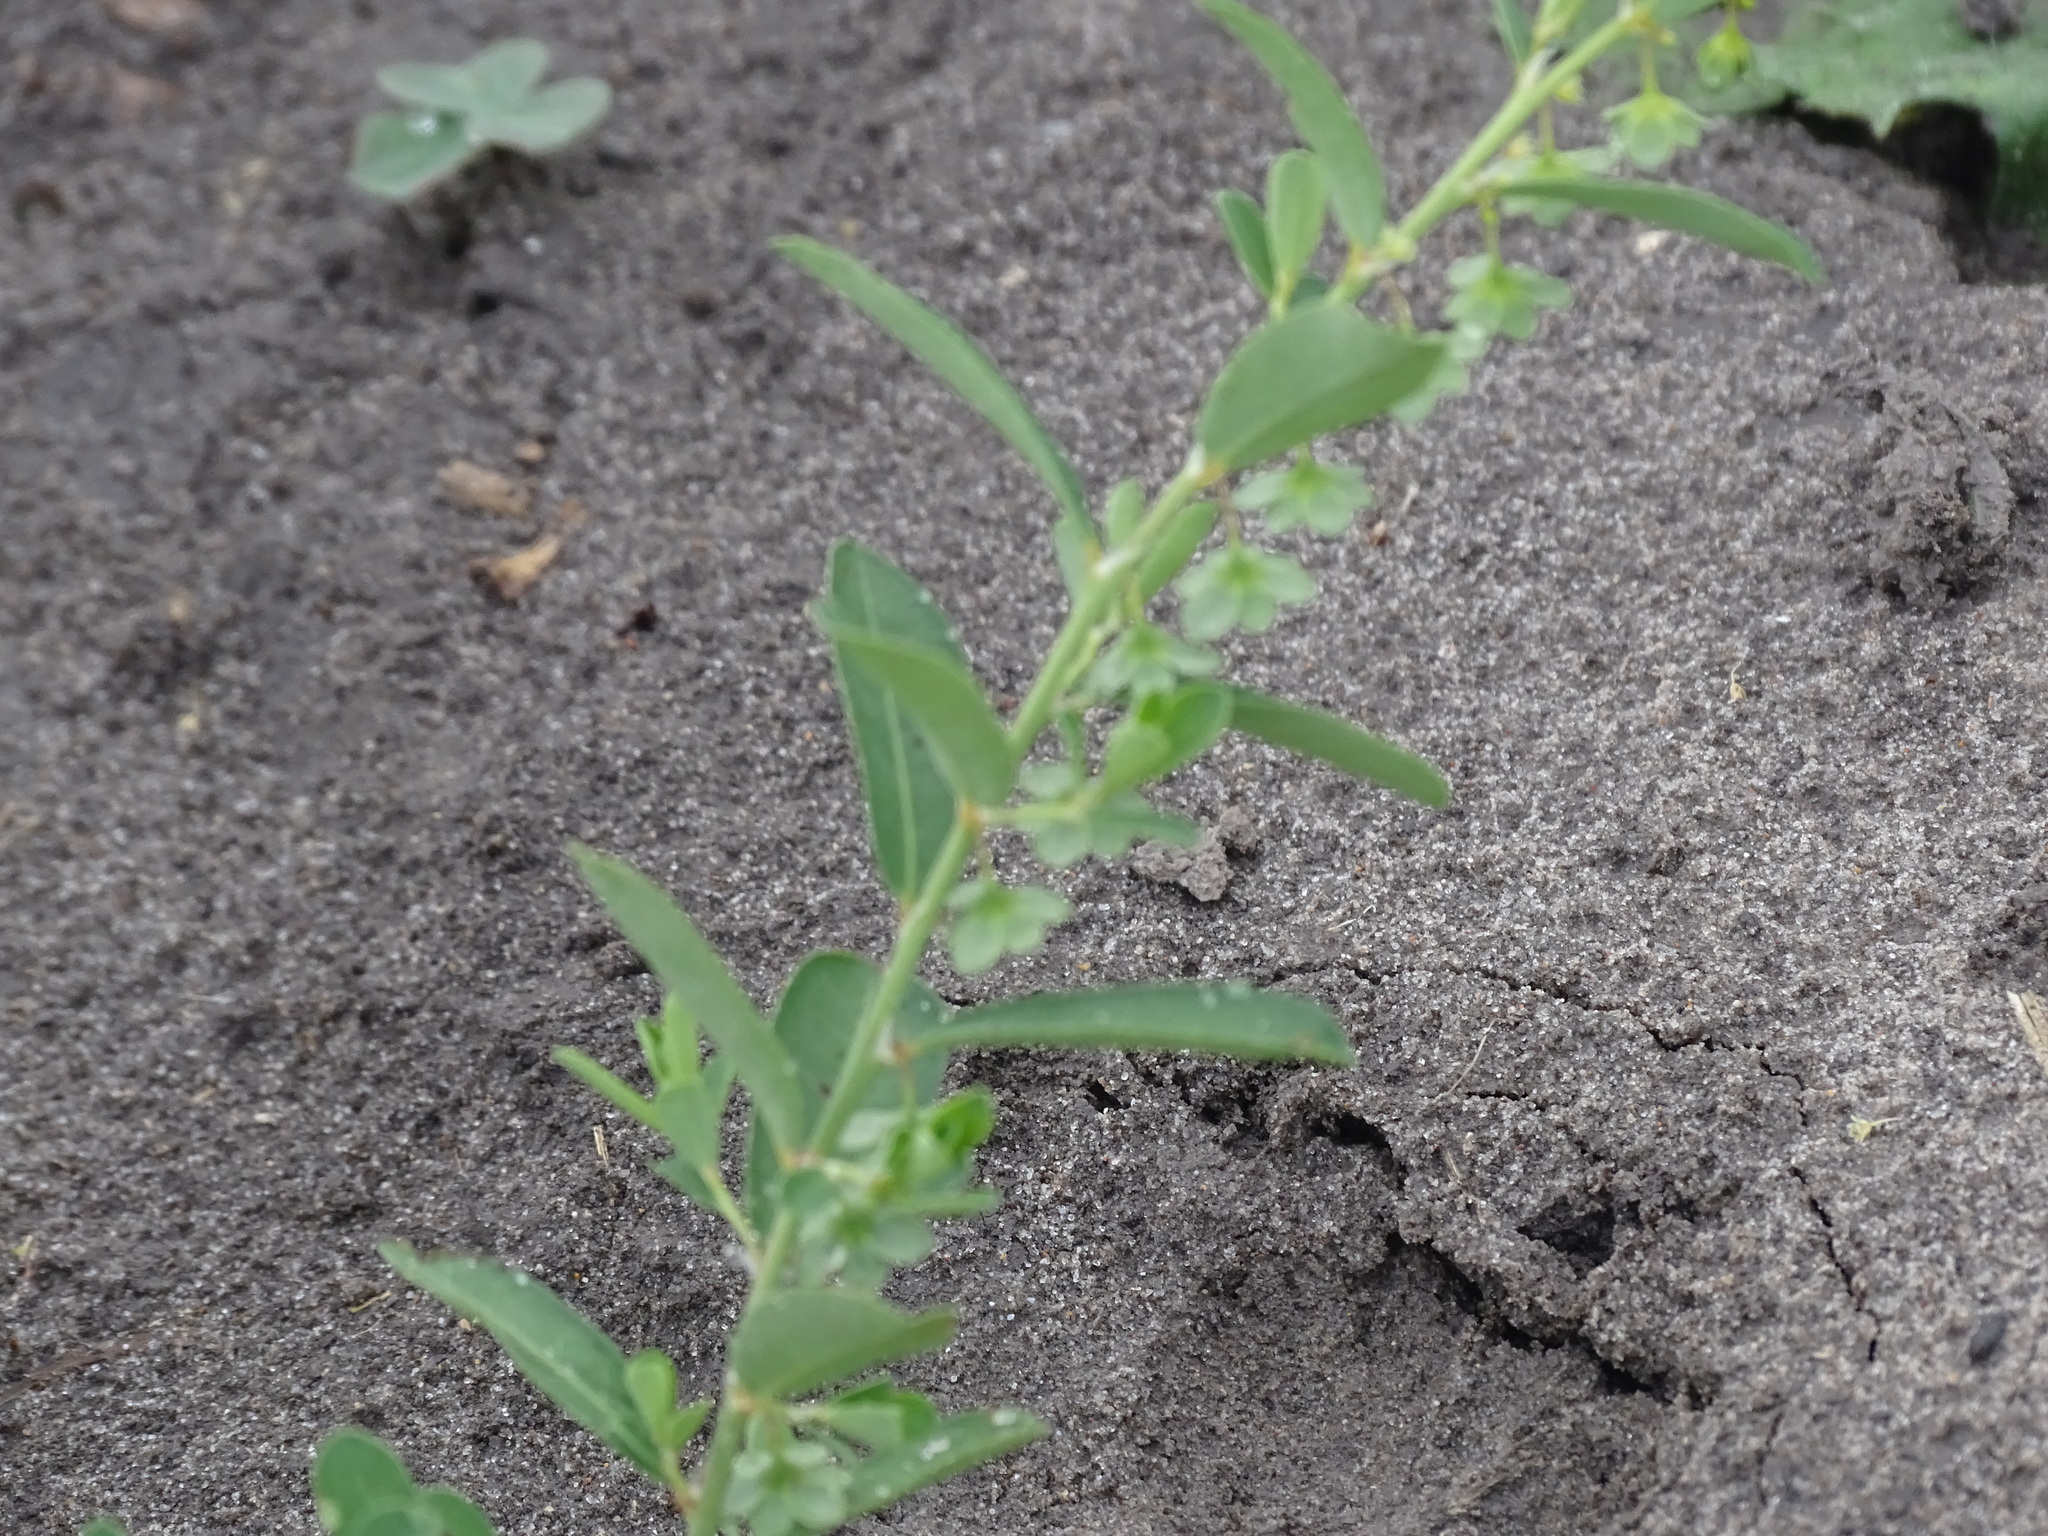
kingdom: Plantae
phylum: Tracheophyta
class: Magnoliopsida
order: Malpighiales
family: Phyllanthaceae
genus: Phyllanthus
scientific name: Phyllanthus polygonoides
